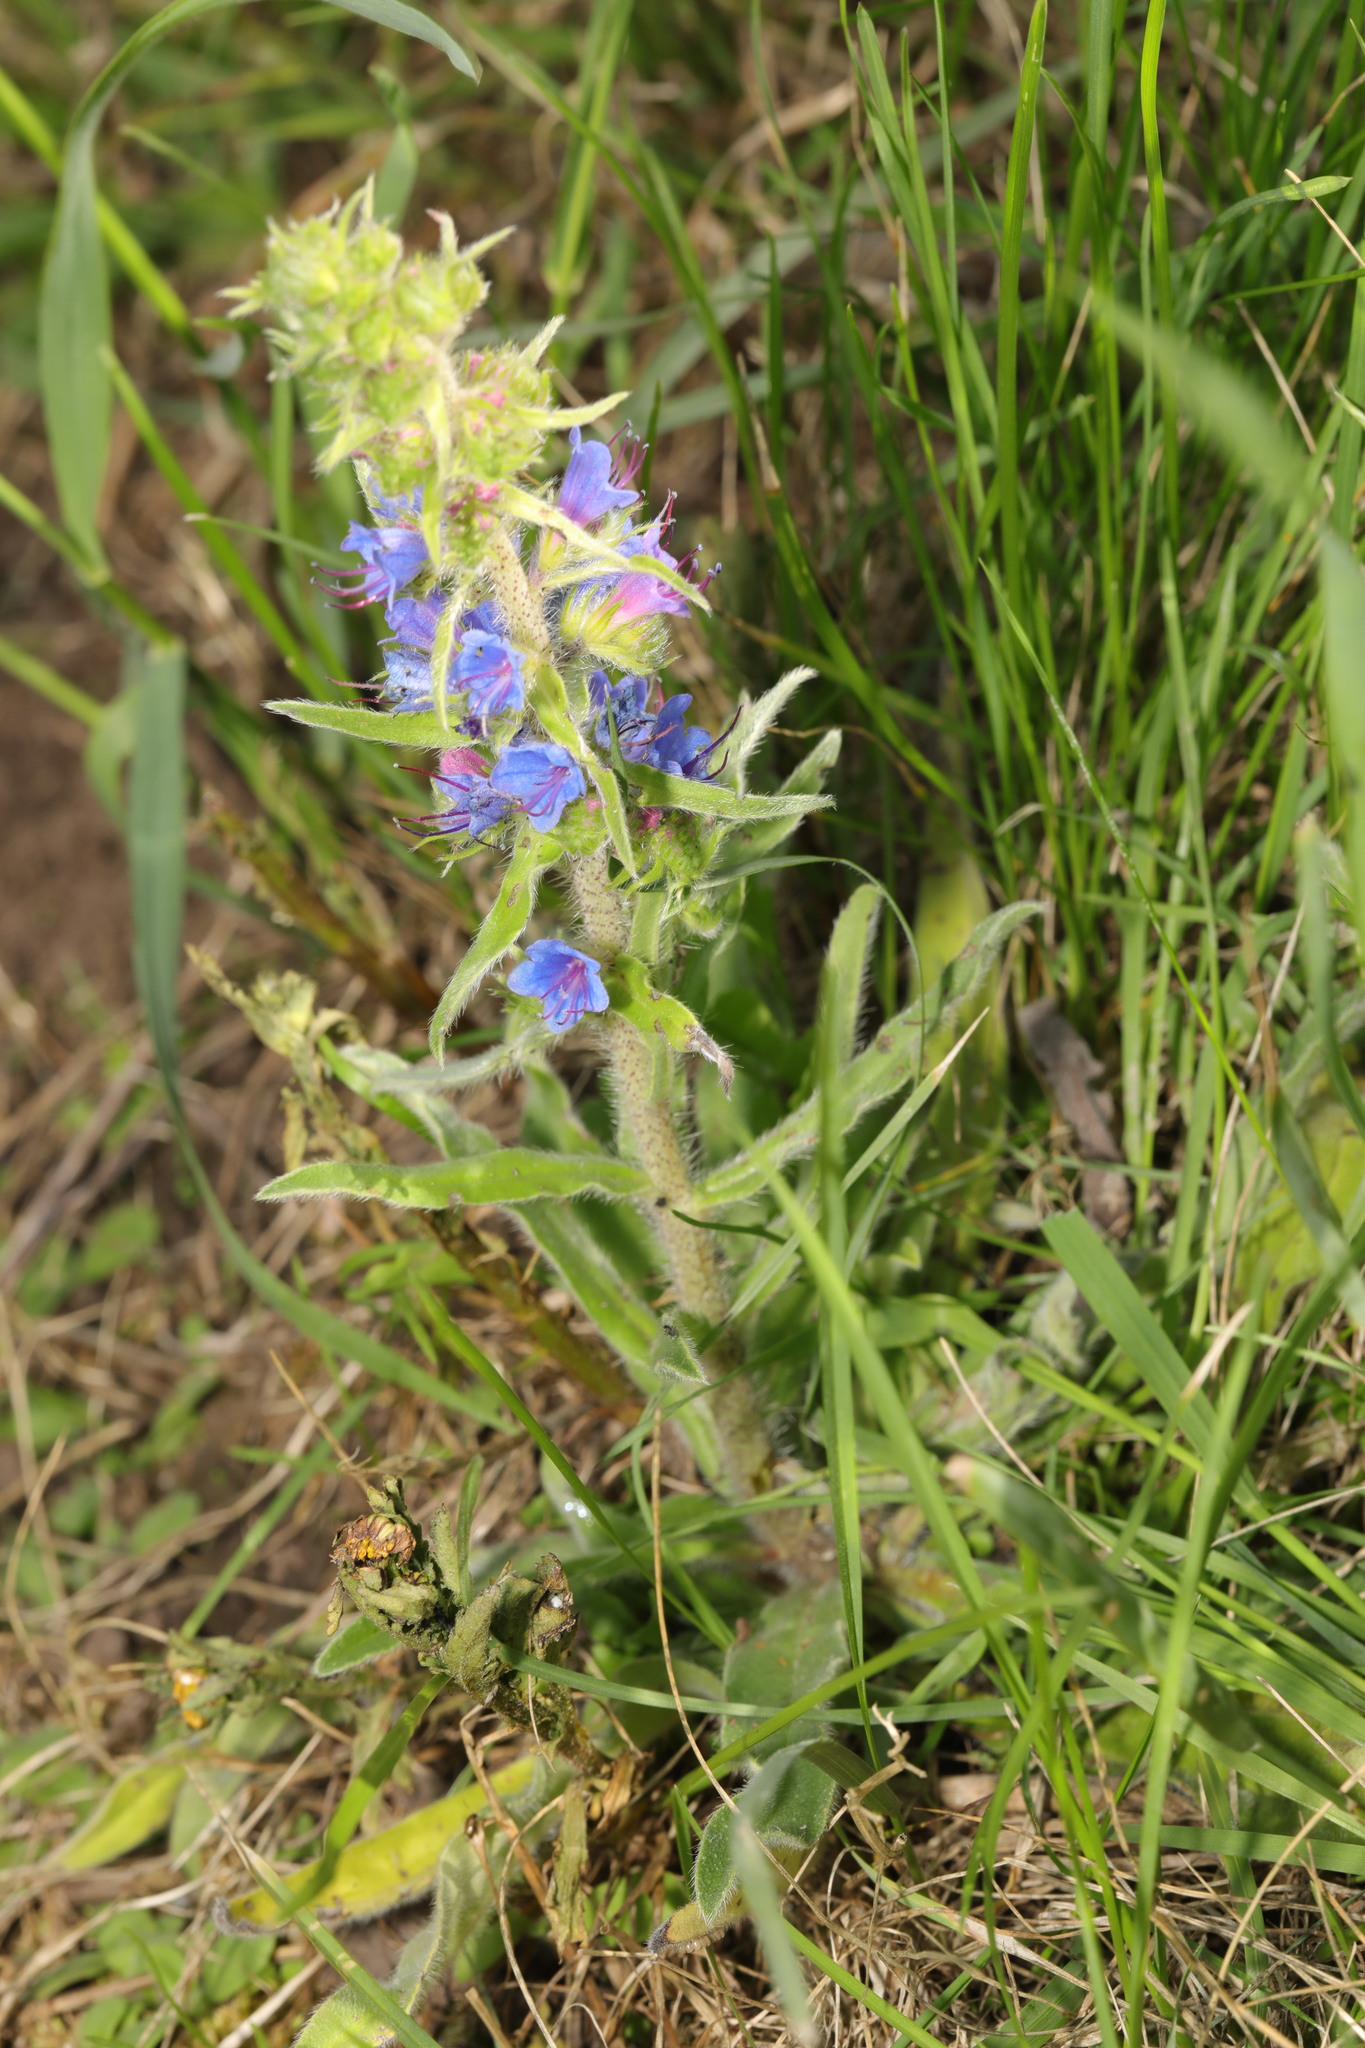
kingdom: Plantae
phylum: Tracheophyta
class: Magnoliopsida
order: Boraginales
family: Boraginaceae
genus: Echium
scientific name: Echium vulgare
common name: Common viper's bugloss
